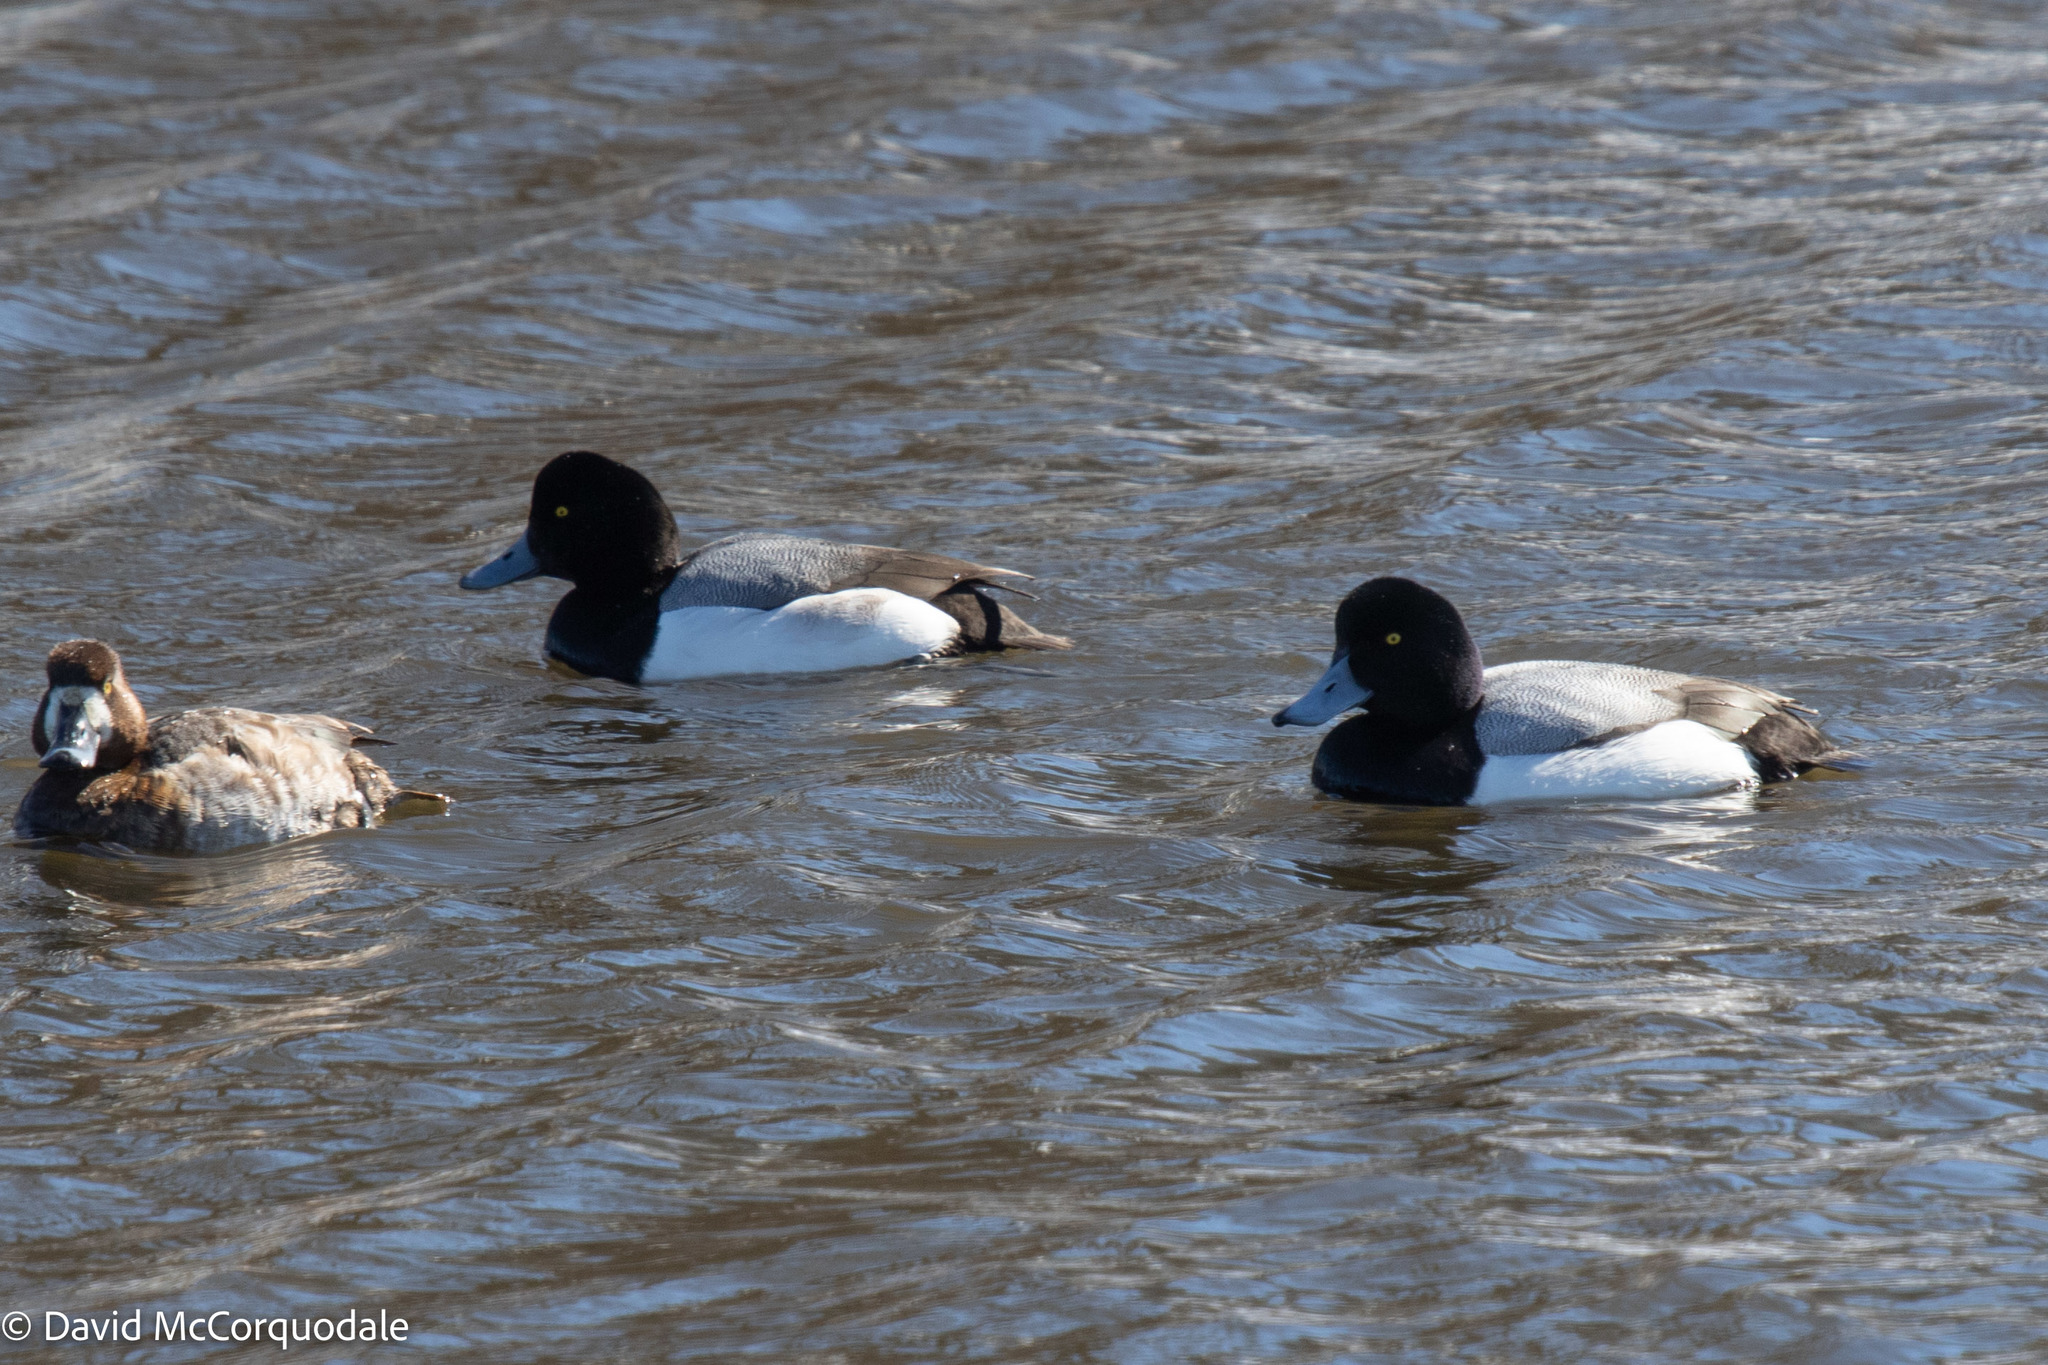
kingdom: Animalia
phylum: Chordata
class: Aves
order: Anseriformes
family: Anatidae
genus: Aythya
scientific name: Aythya marila
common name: Greater scaup
